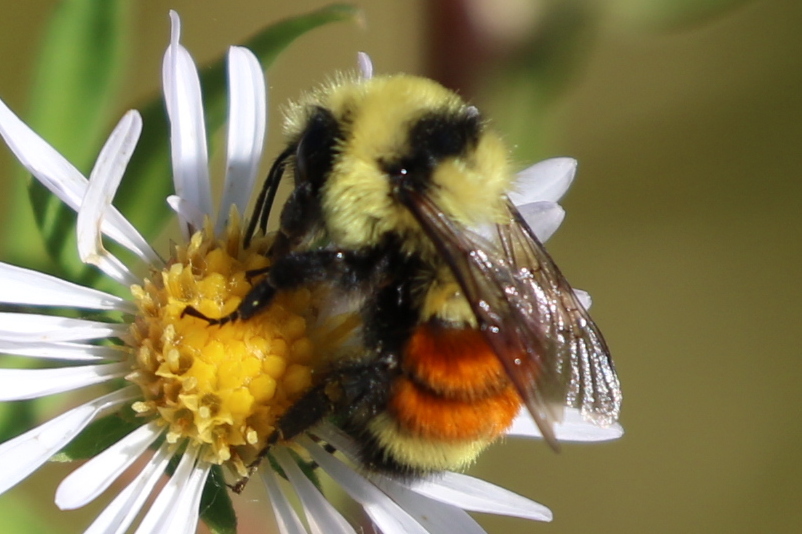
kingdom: Animalia
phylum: Arthropoda
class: Insecta
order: Hymenoptera
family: Apidae
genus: Bombus
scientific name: Bombus huntii
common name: Hunt bumble bee
